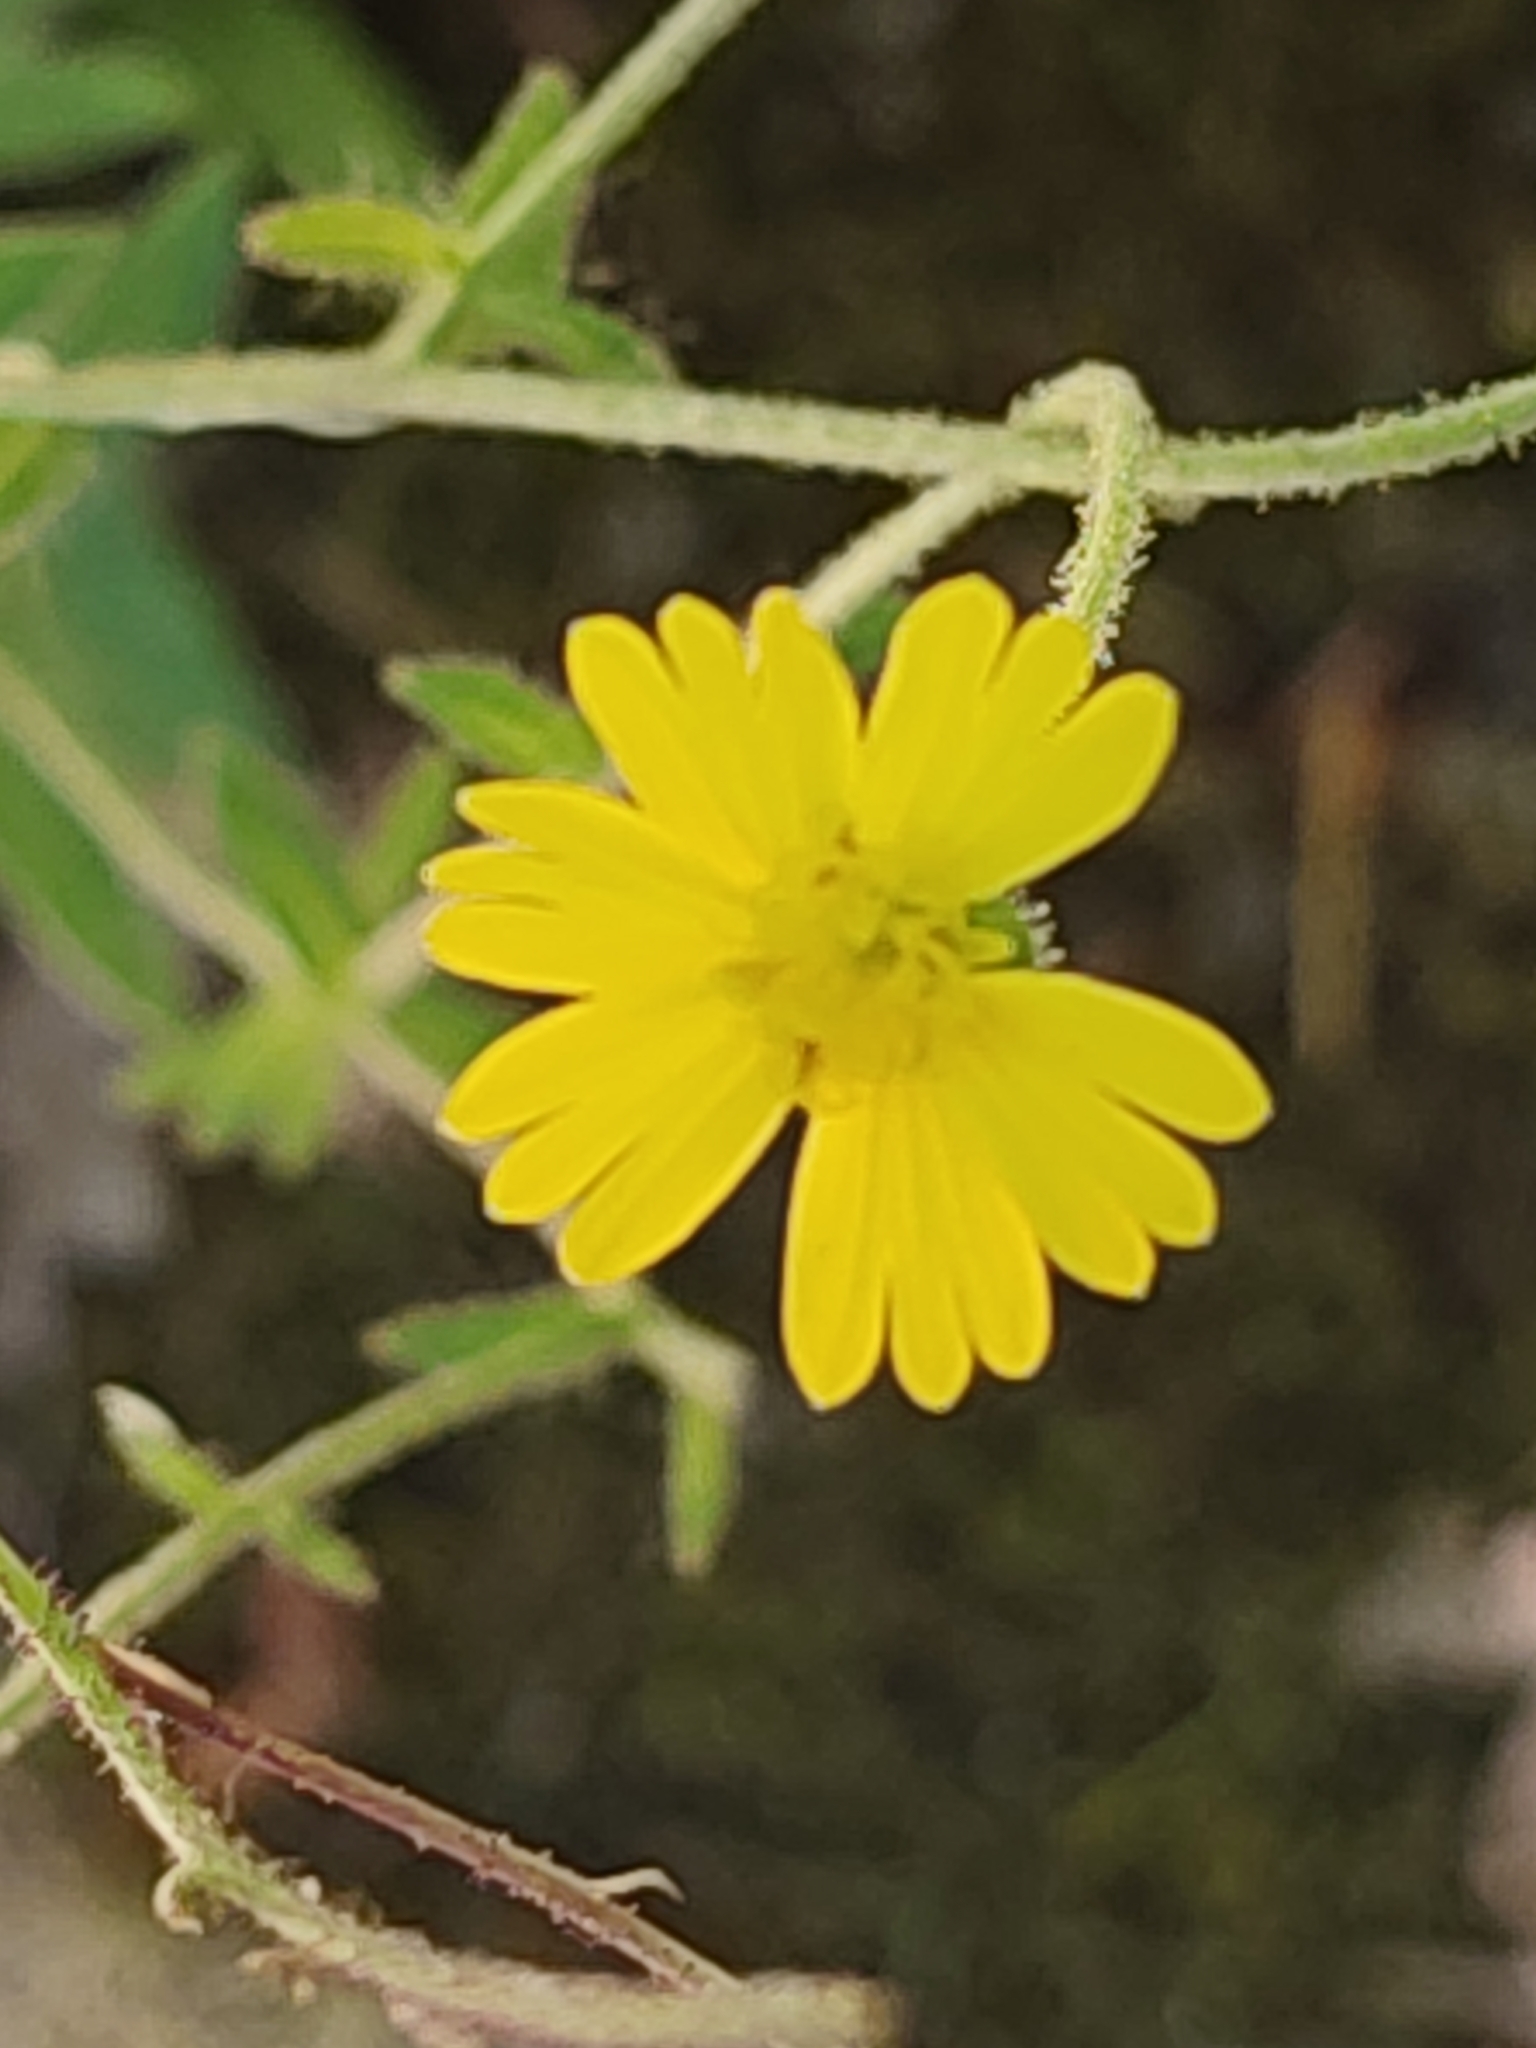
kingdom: Plantae
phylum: Tracheophyta
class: Magnoliopsida
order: Asterales
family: Asteraceae
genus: Anisocarpus
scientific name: Anisocarpus madioides
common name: Woodland madia
